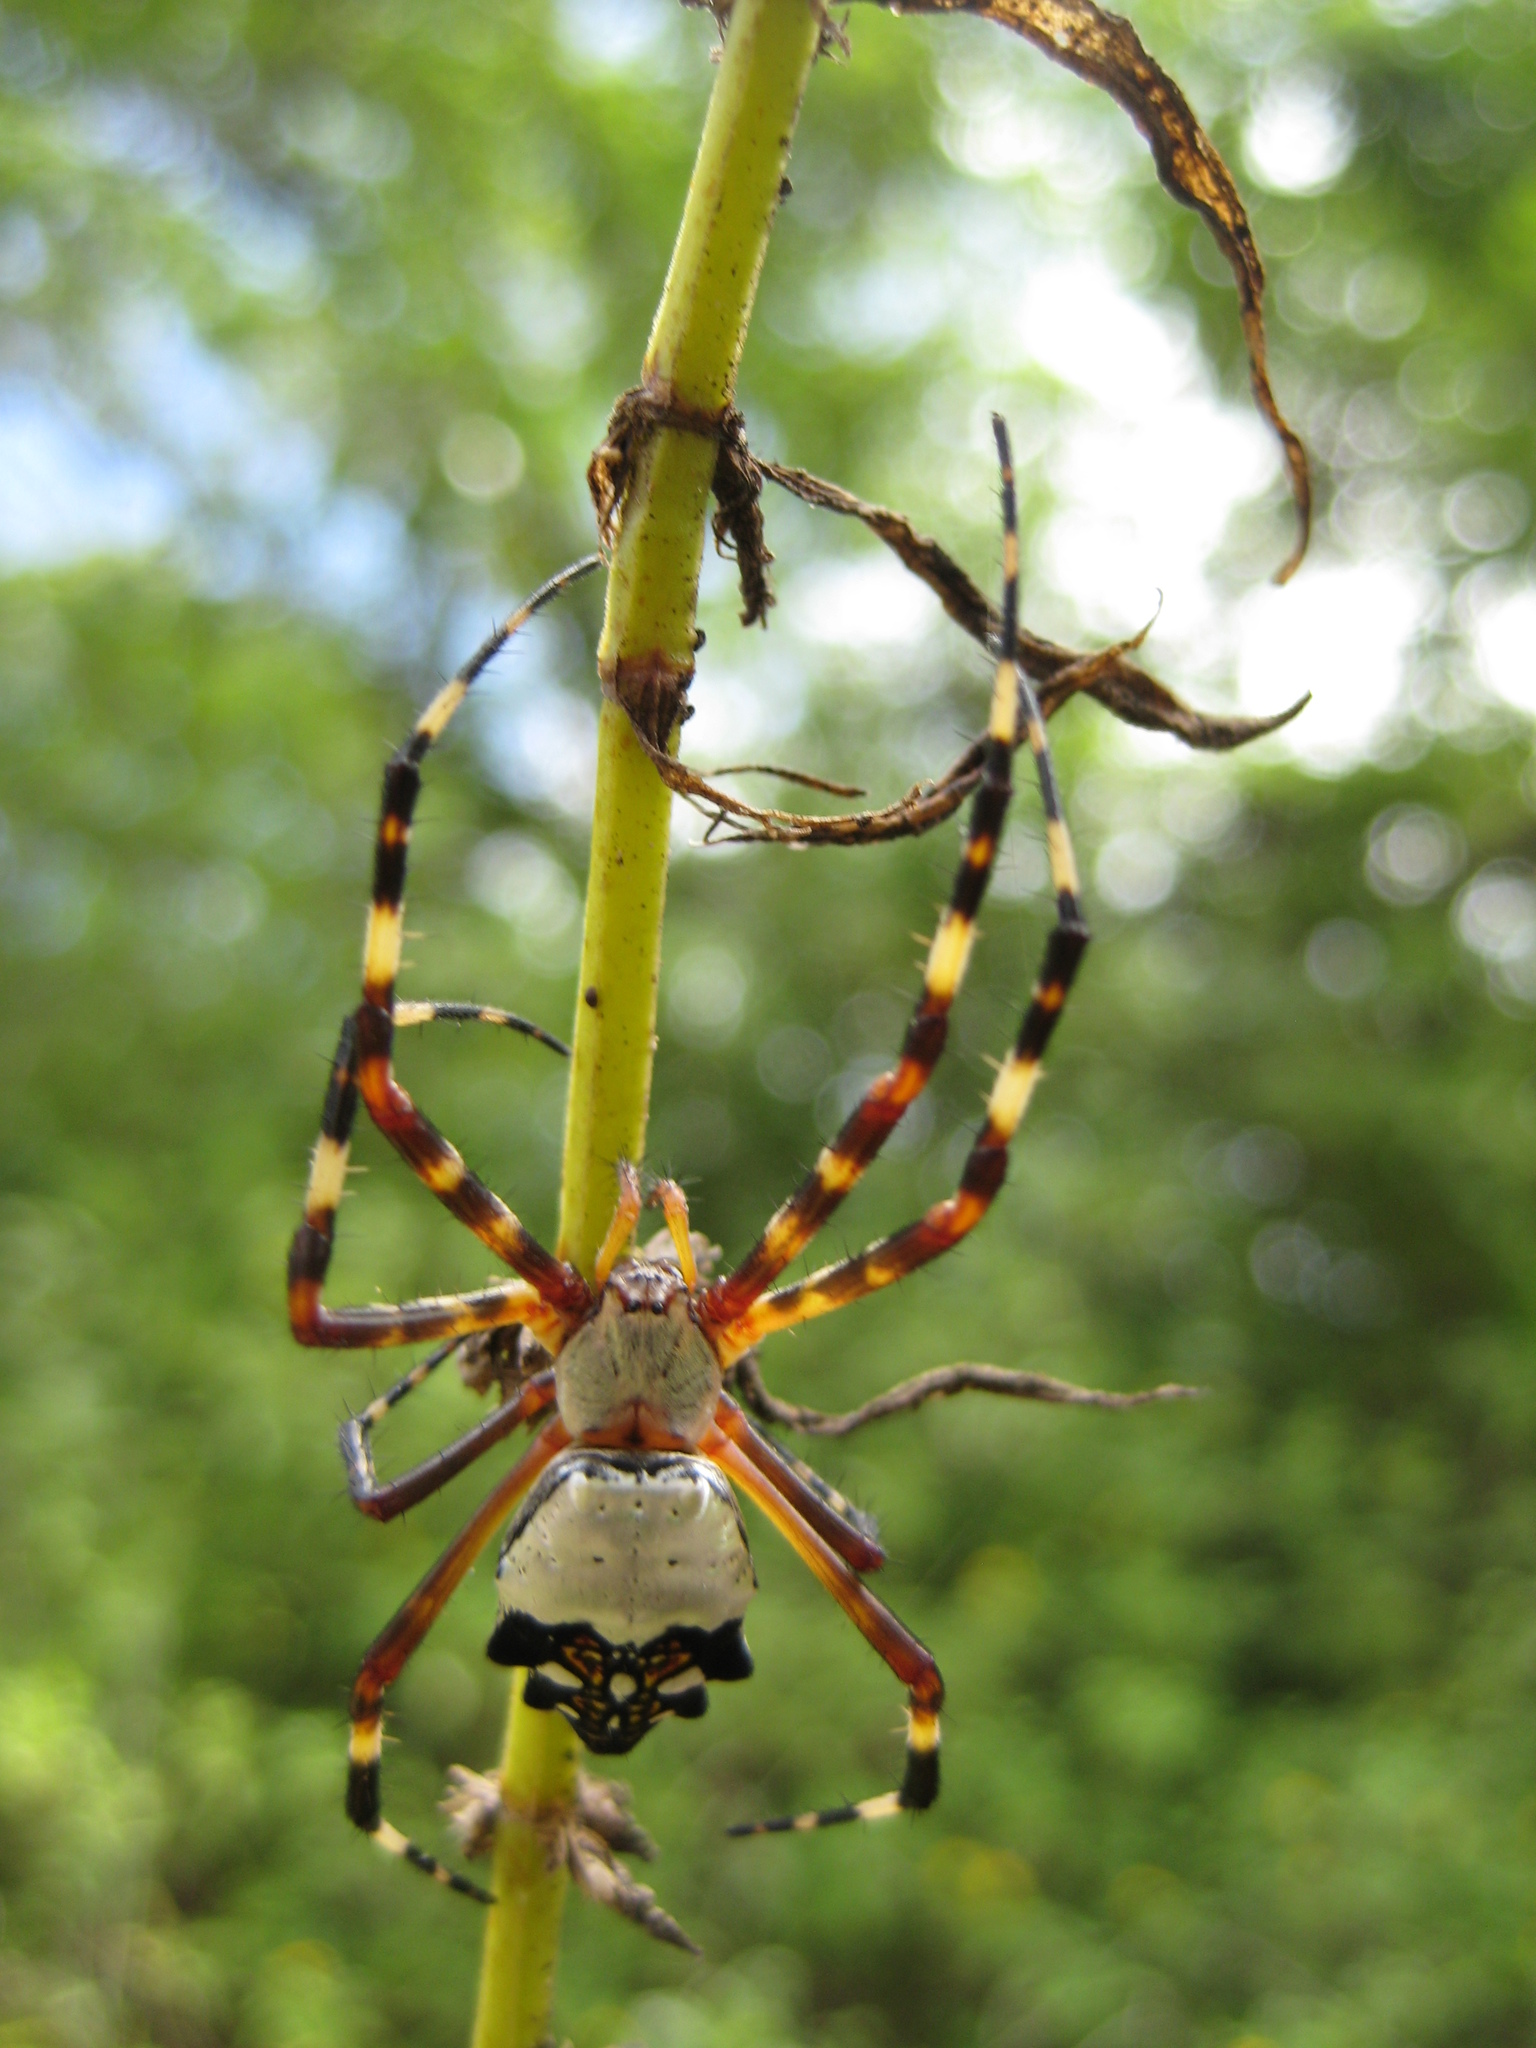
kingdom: Animalia
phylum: Arthropoda
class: Arachnida
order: Araneae
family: Araneidae
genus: Argiope
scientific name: Argiope argentata
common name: Orb weavers
